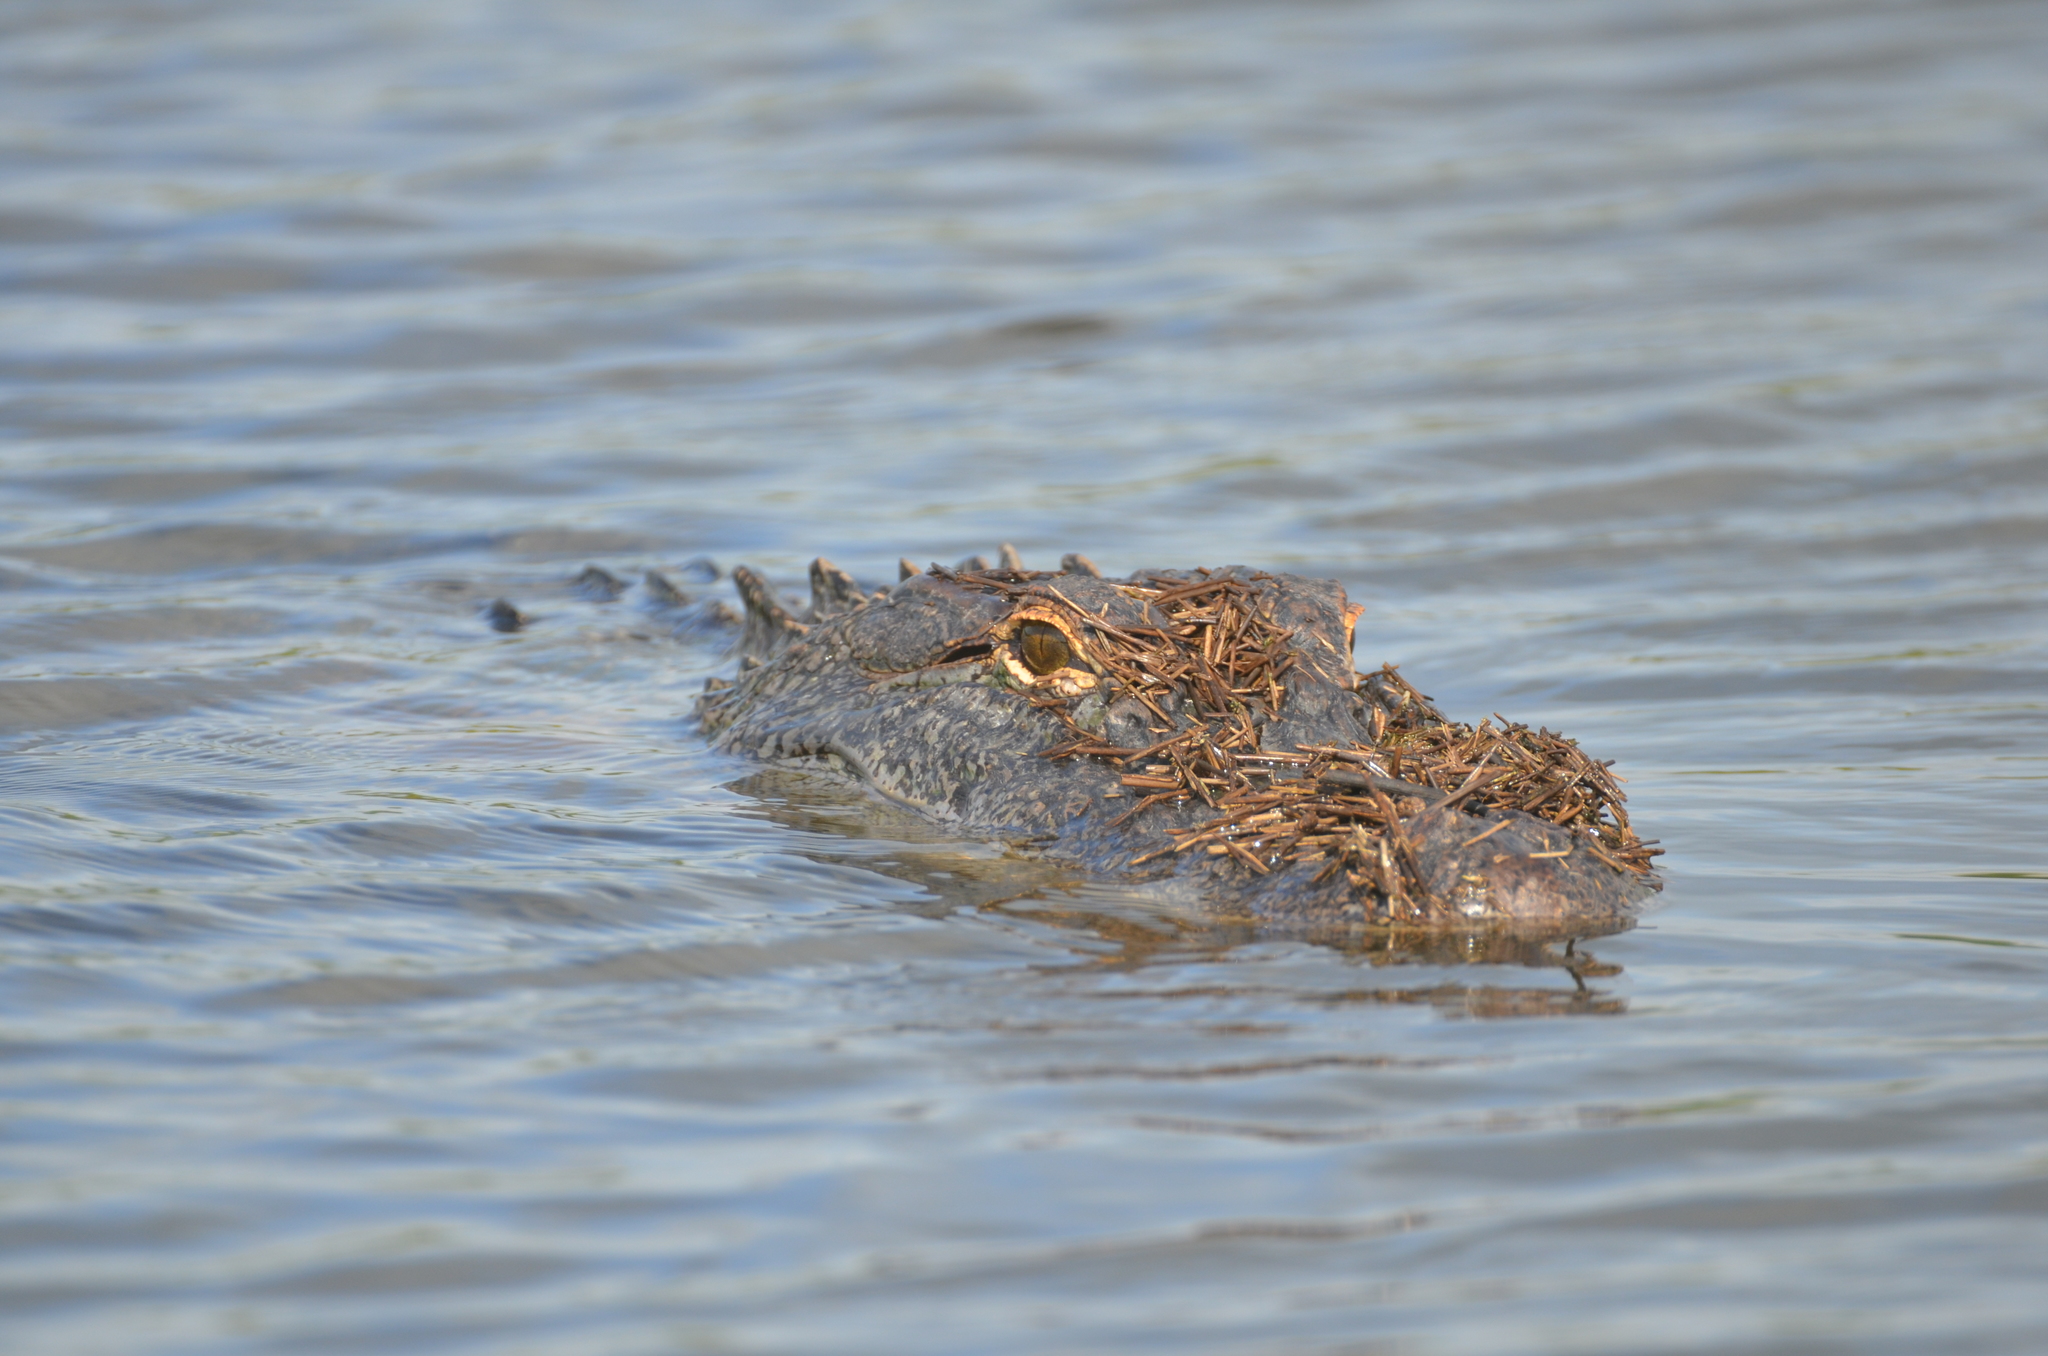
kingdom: Animalia
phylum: Chordata
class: Crocodylia
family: Alligatoridae
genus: Alligator
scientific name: Alligator mississippiensis
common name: American alligator
